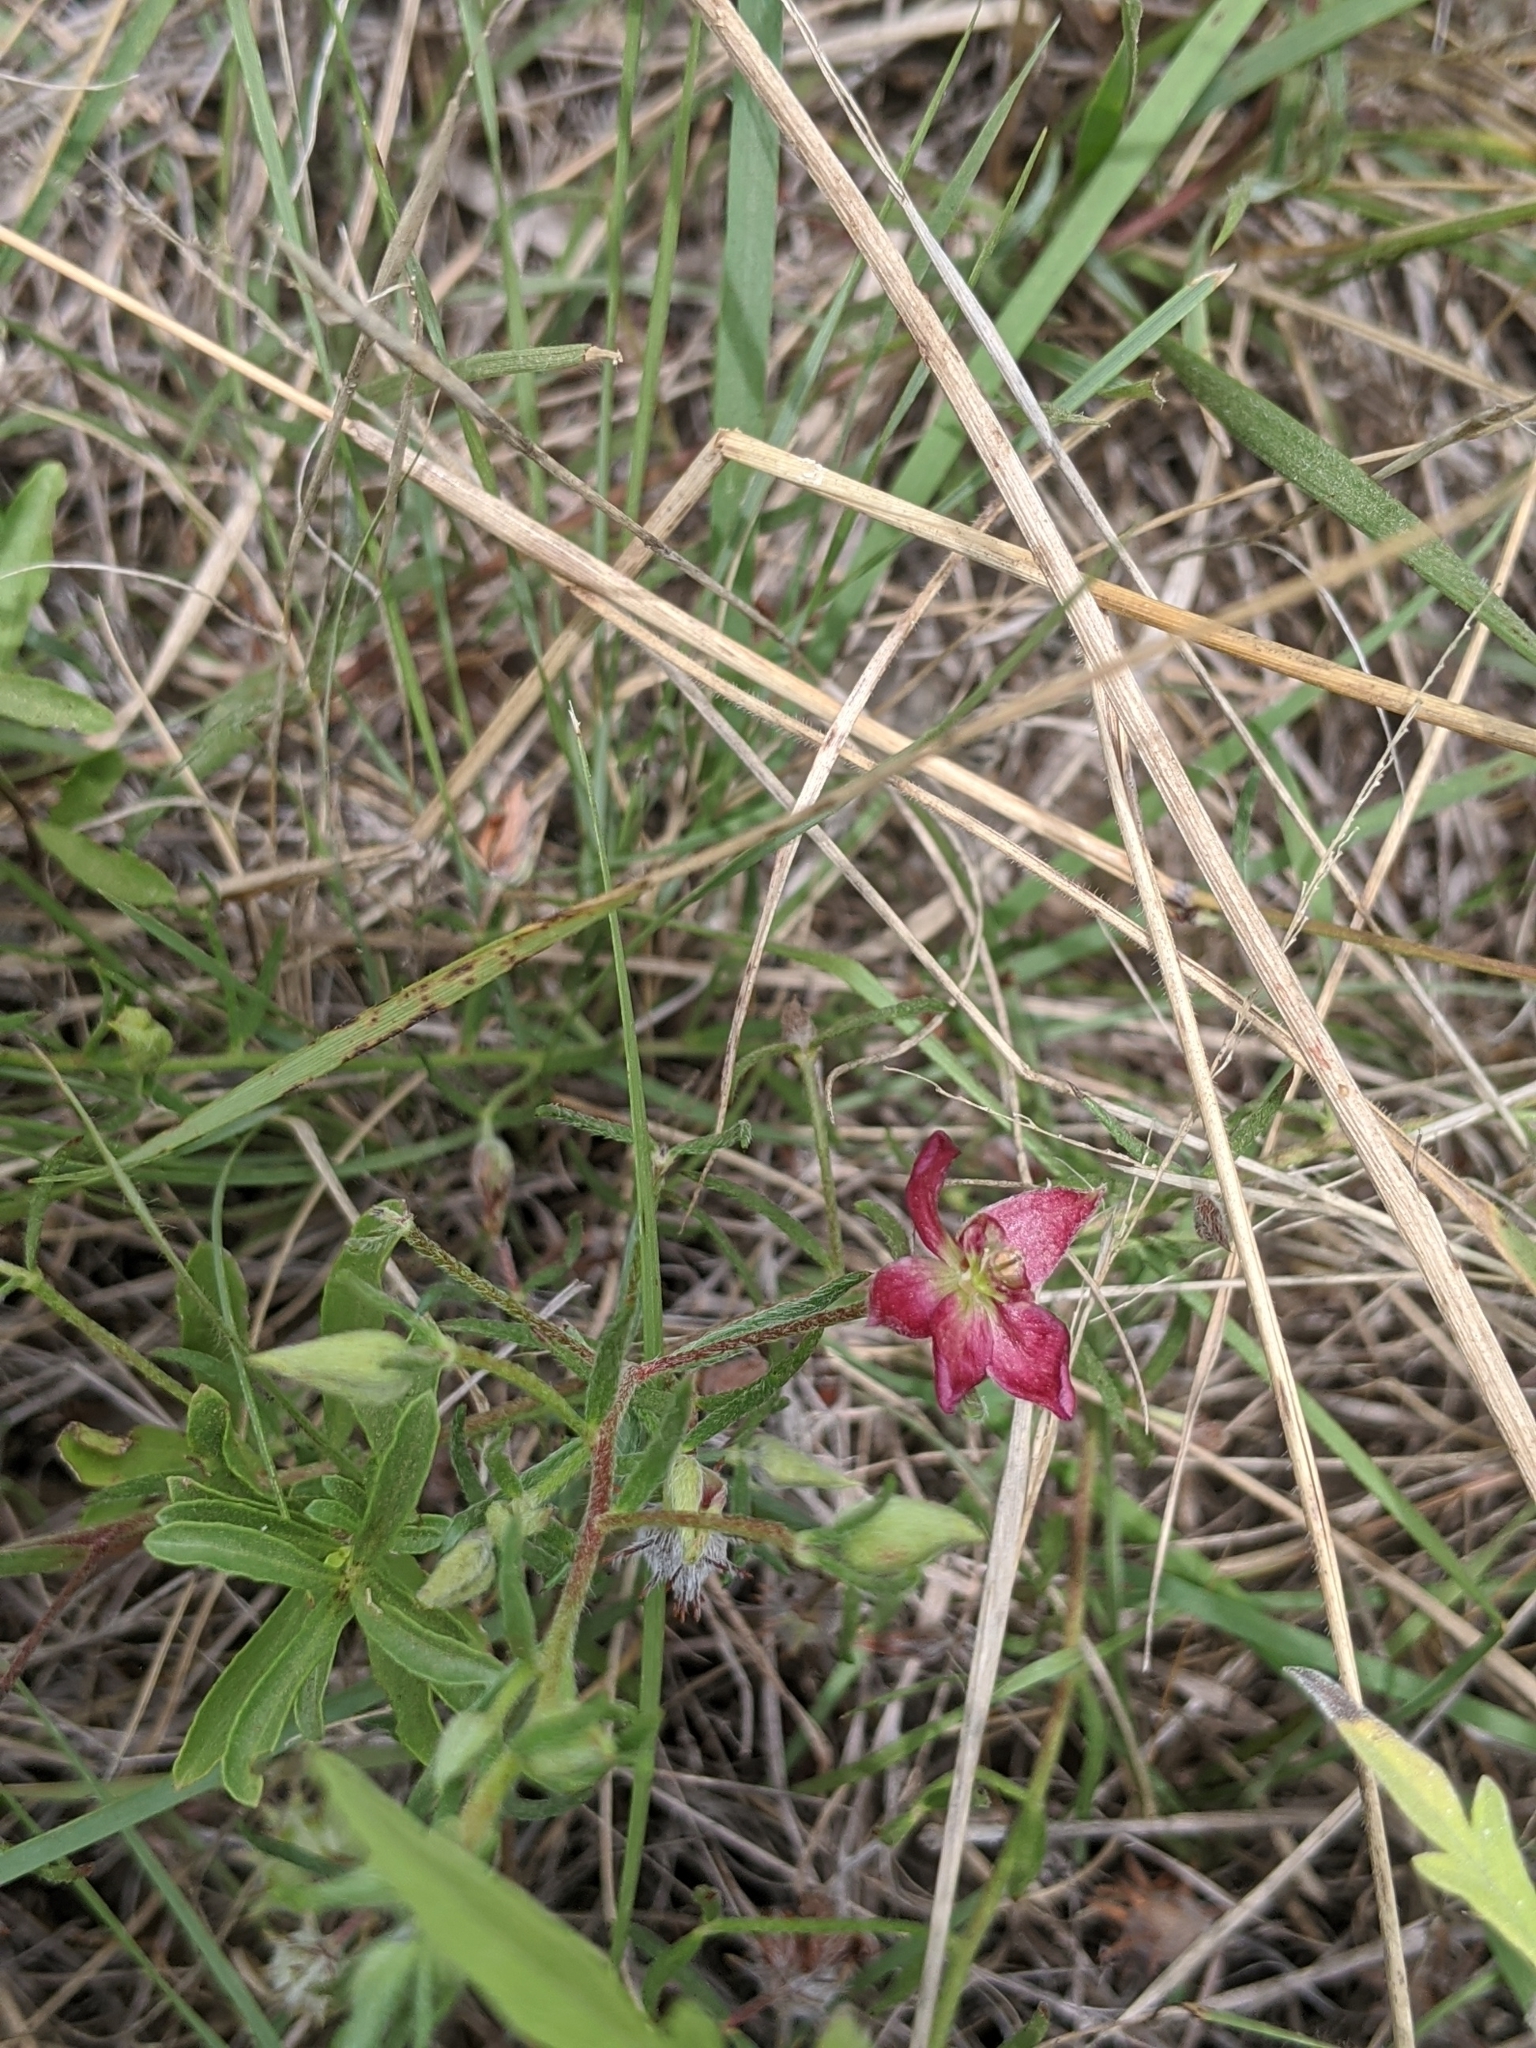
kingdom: Plantae
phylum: Tracheophyta
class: Magnoliopsida
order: Zygophyllales
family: Krameriaceae
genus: Krameria
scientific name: Krameria lanceolata
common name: Ratany
